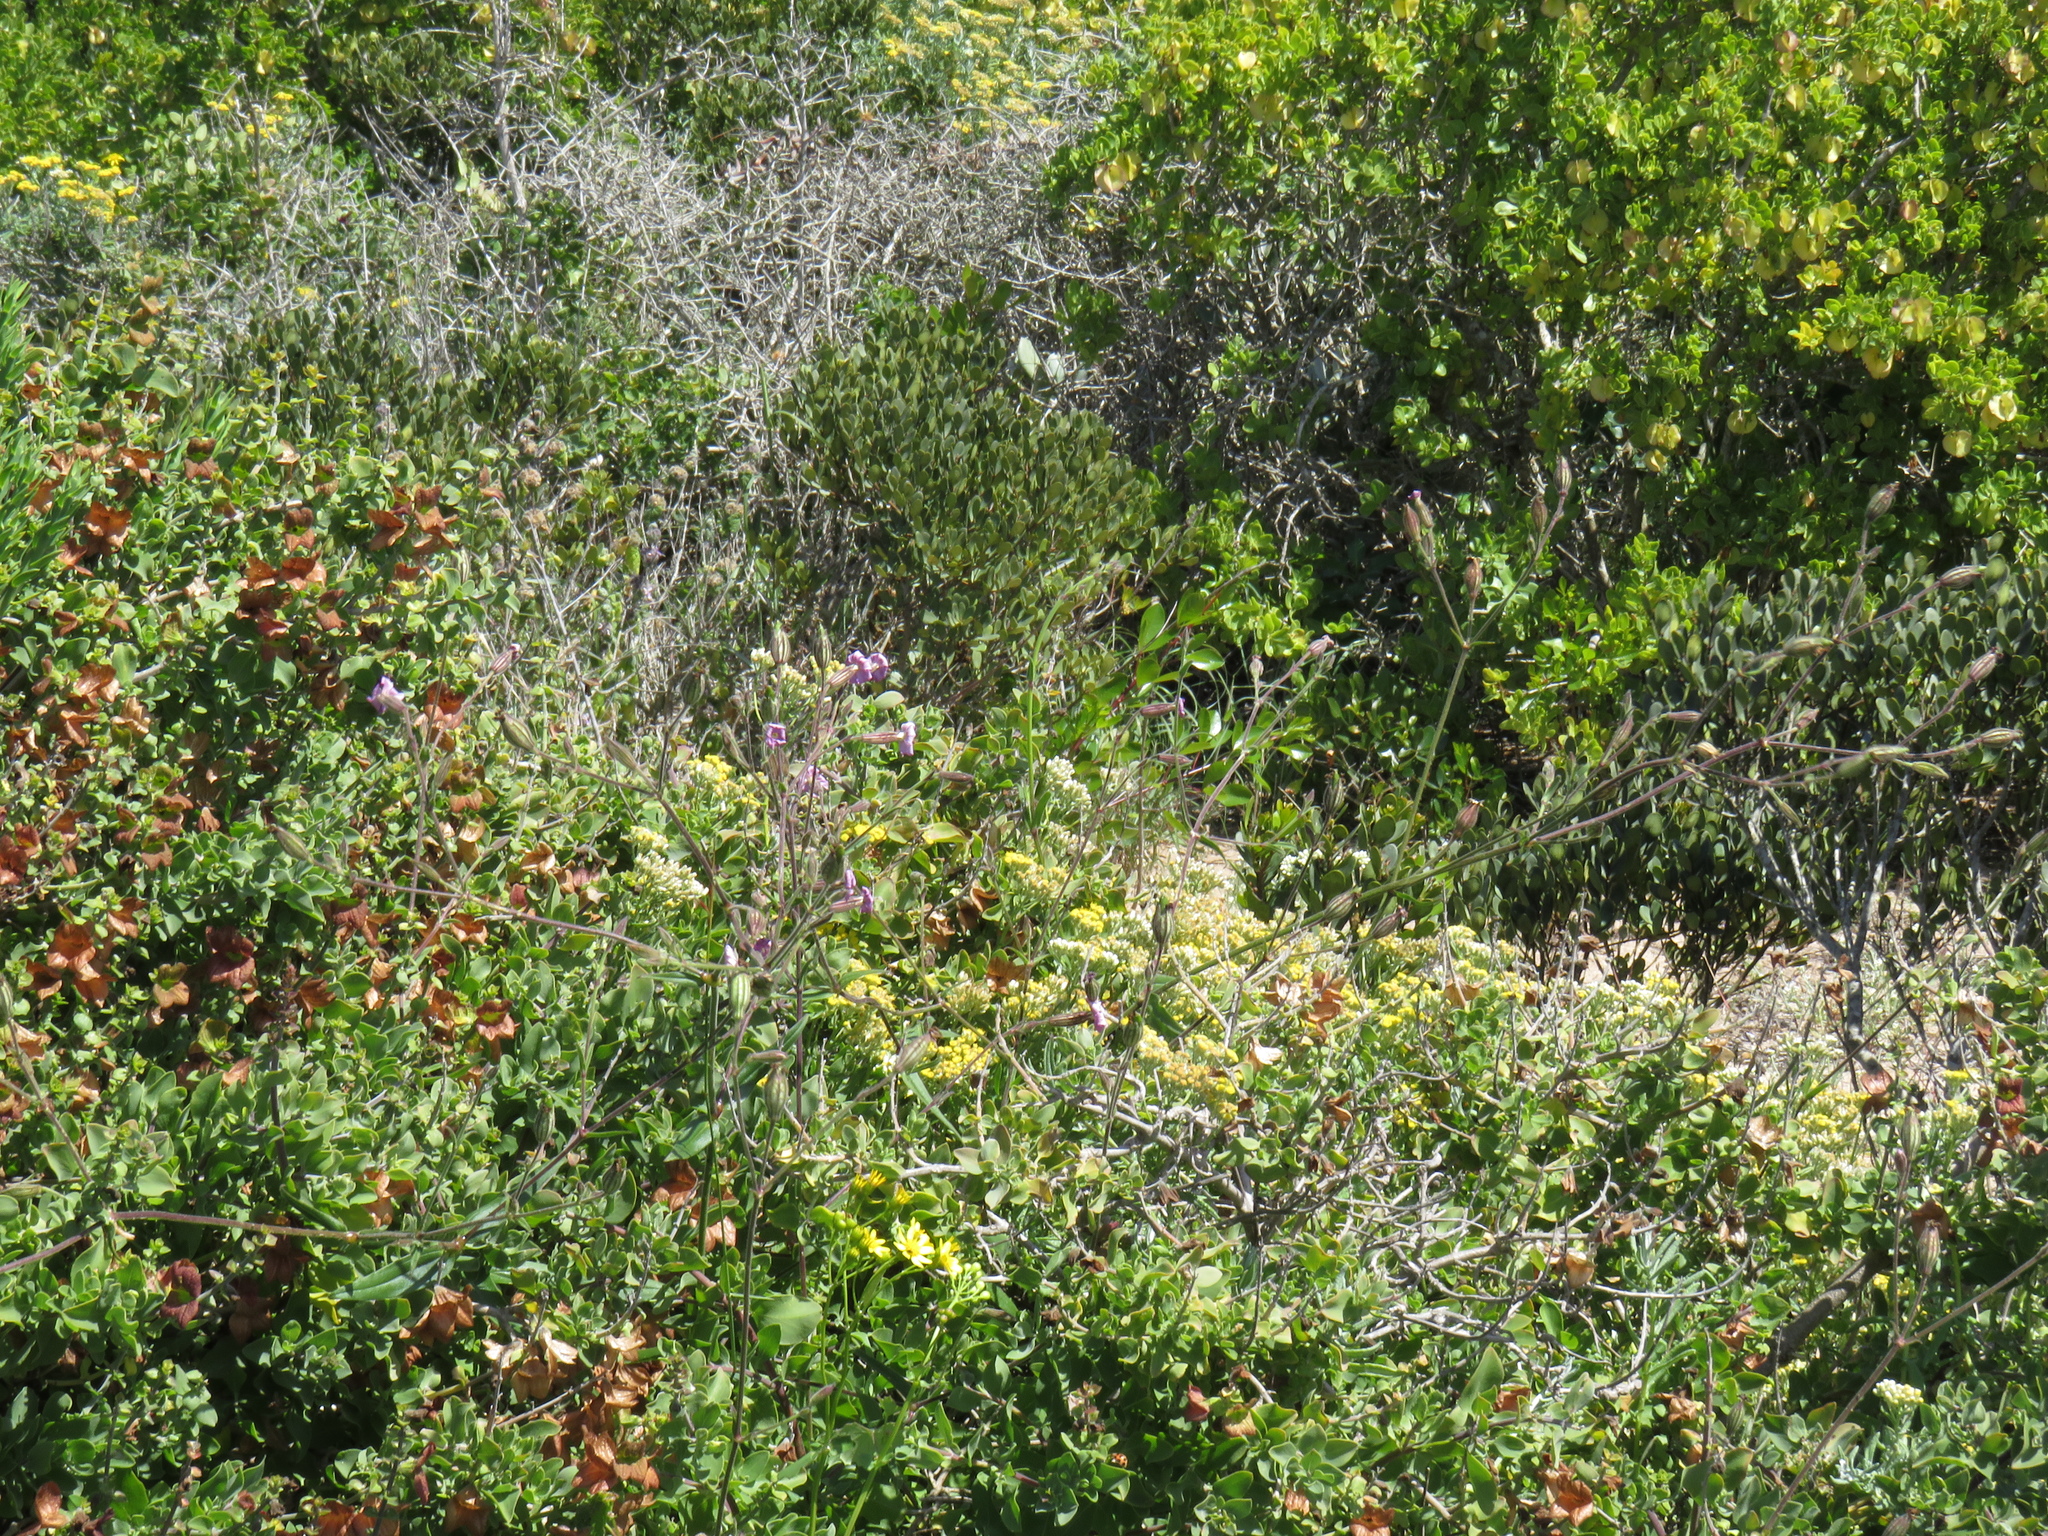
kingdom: Plantae
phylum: Tracheophyta
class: Magnoliopsida
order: Caryophyllales
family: Caryophyllaceae
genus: Silene
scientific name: Silene rigens
